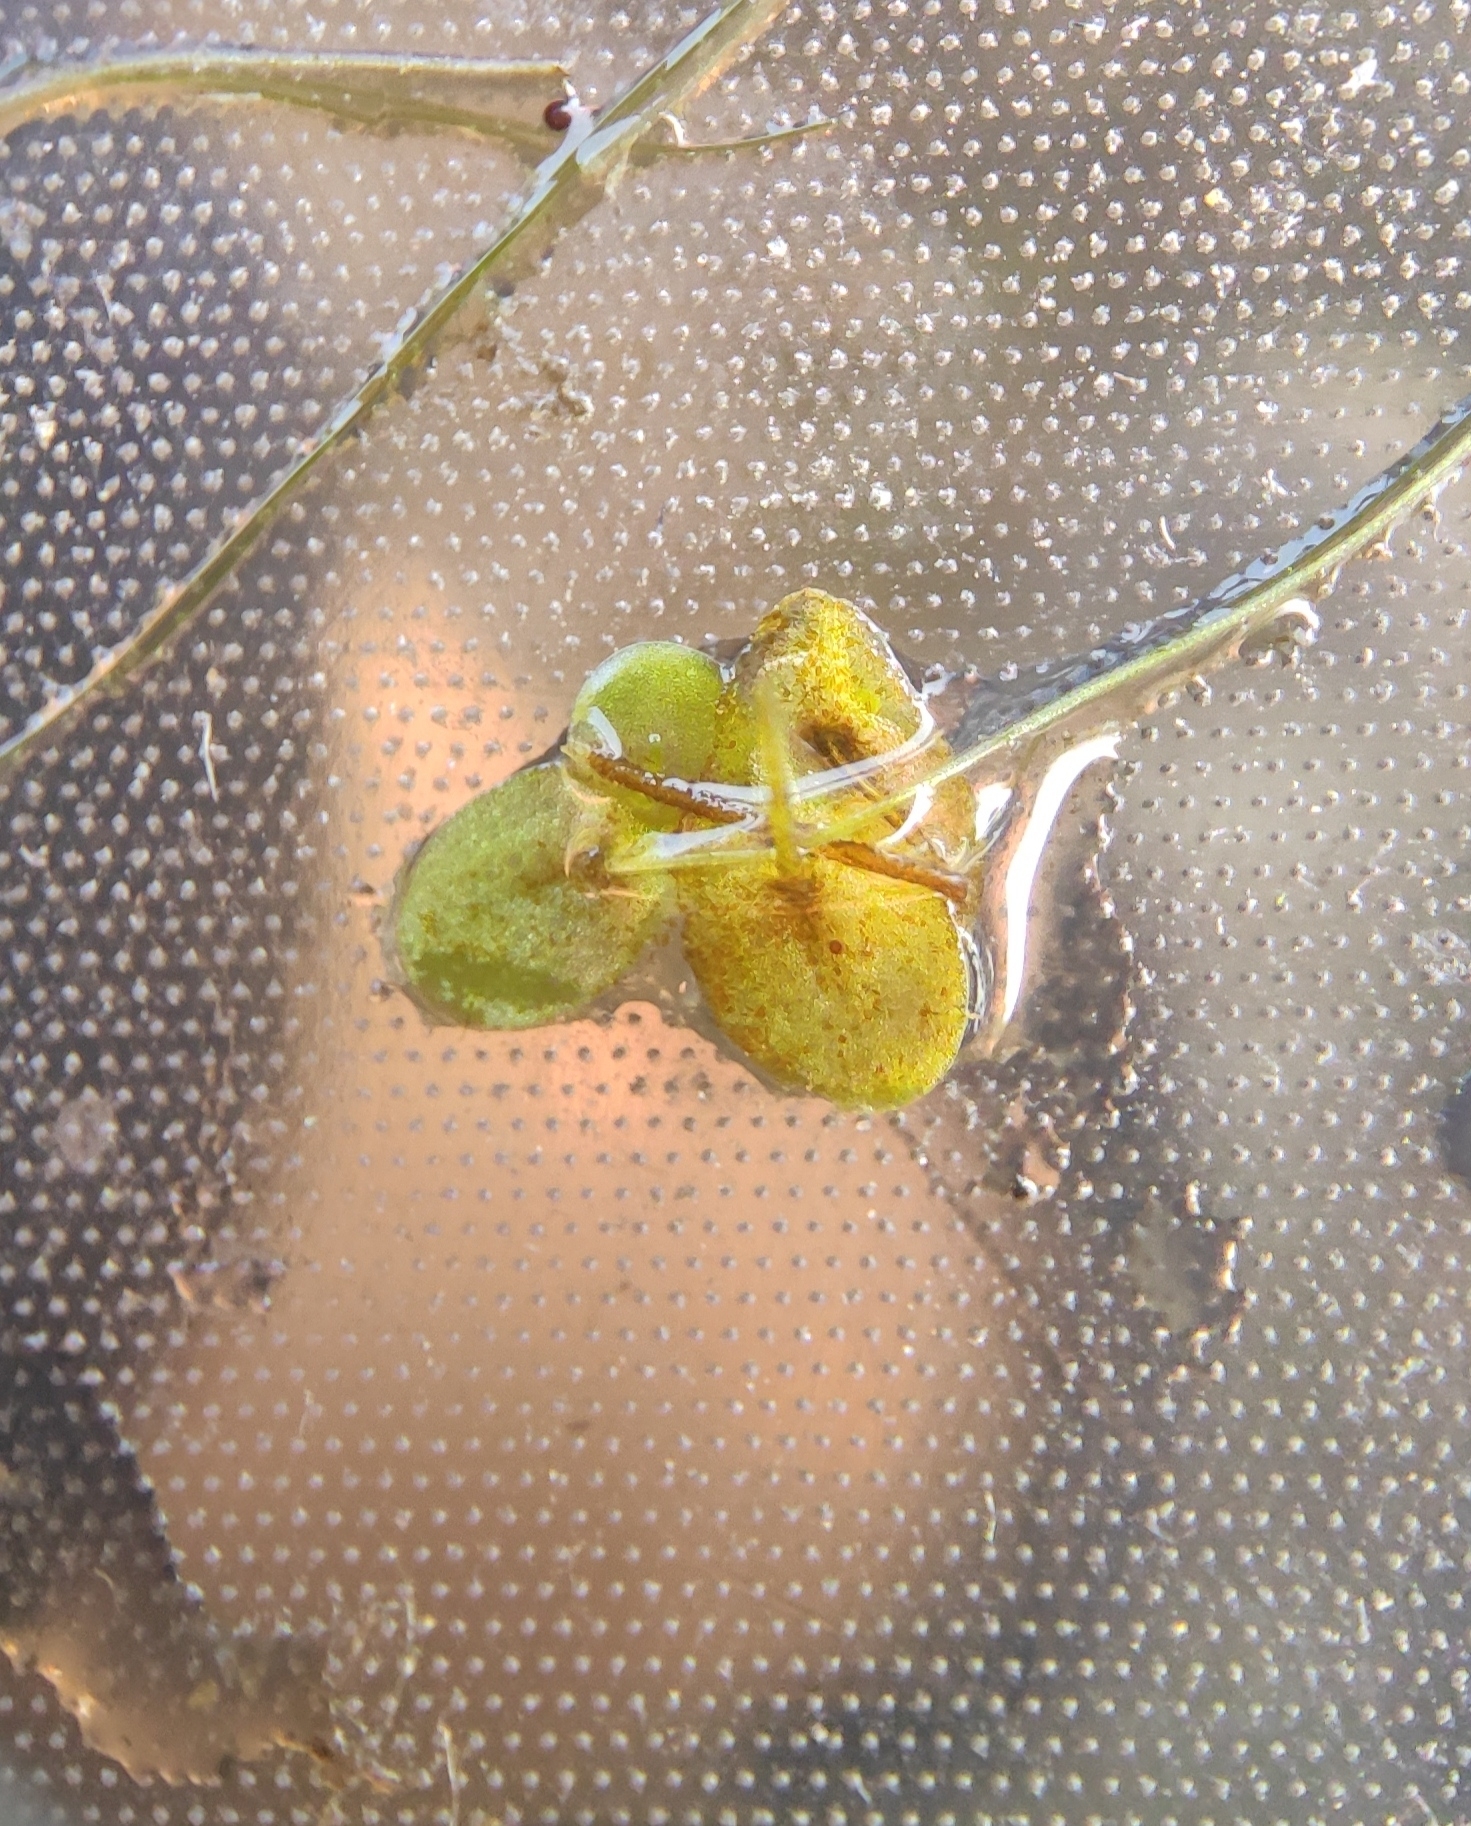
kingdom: Plantae
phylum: Tracheophyta
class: Liliopsida
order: Alismatales
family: Araceae
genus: Lemna
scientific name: Lemna minor
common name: Common duckweed
